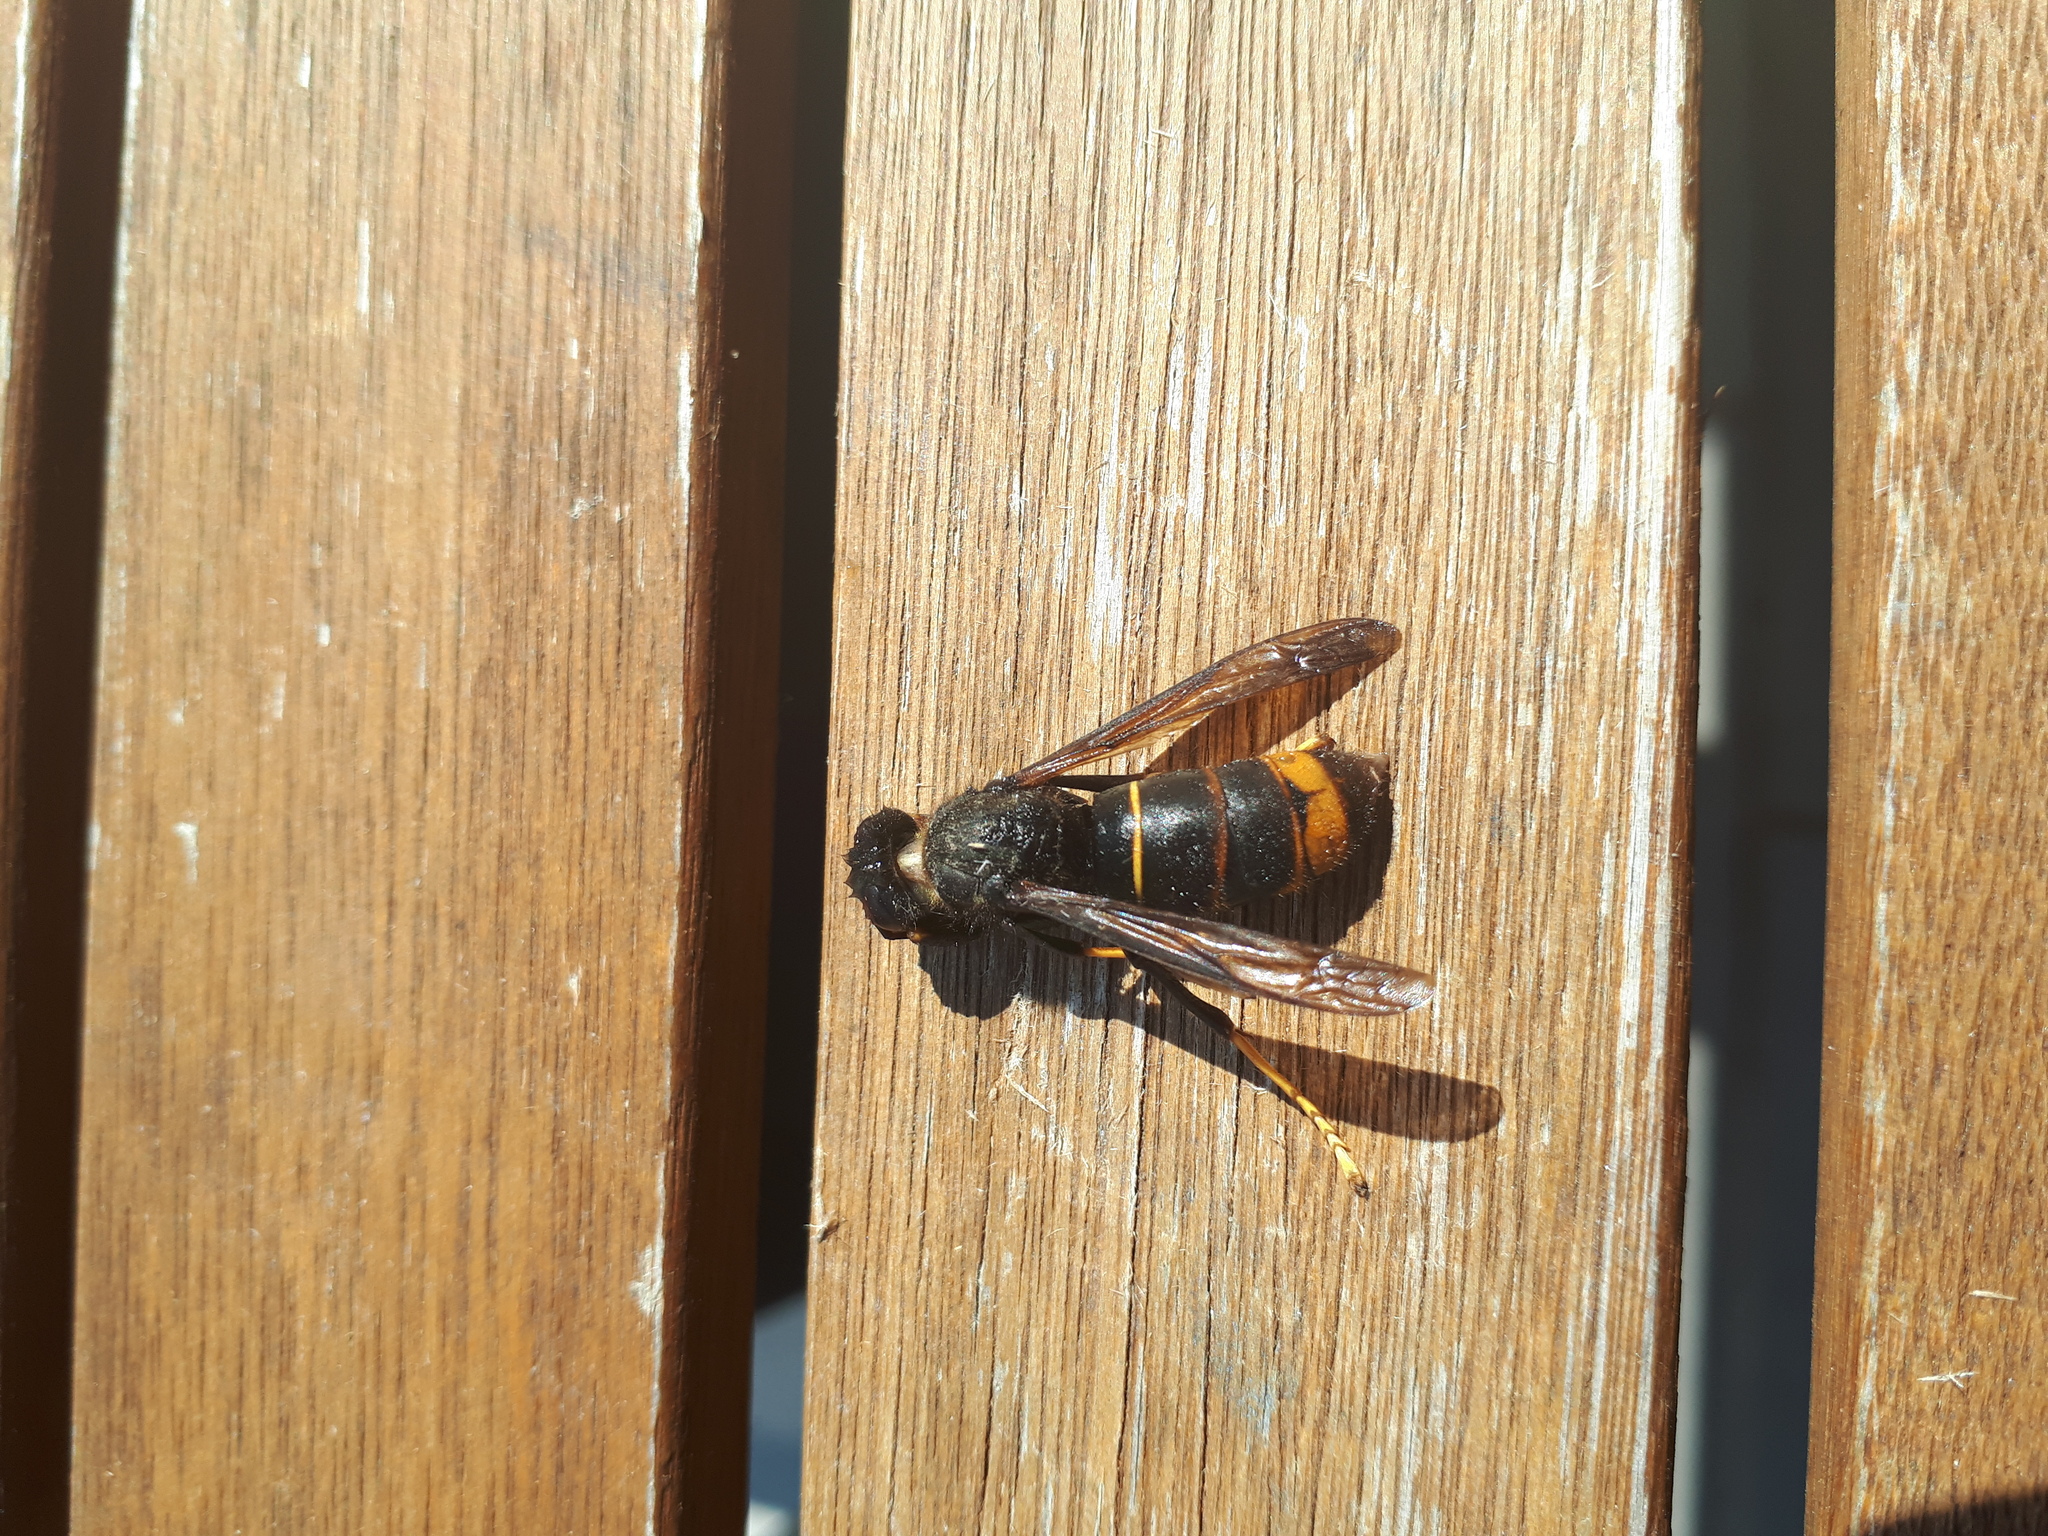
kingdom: Animalia
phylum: Arthropoda
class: Insecta
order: Hymenoptera
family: Vespidae
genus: Vespa
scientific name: Vespa velutina
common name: Asian hornet
